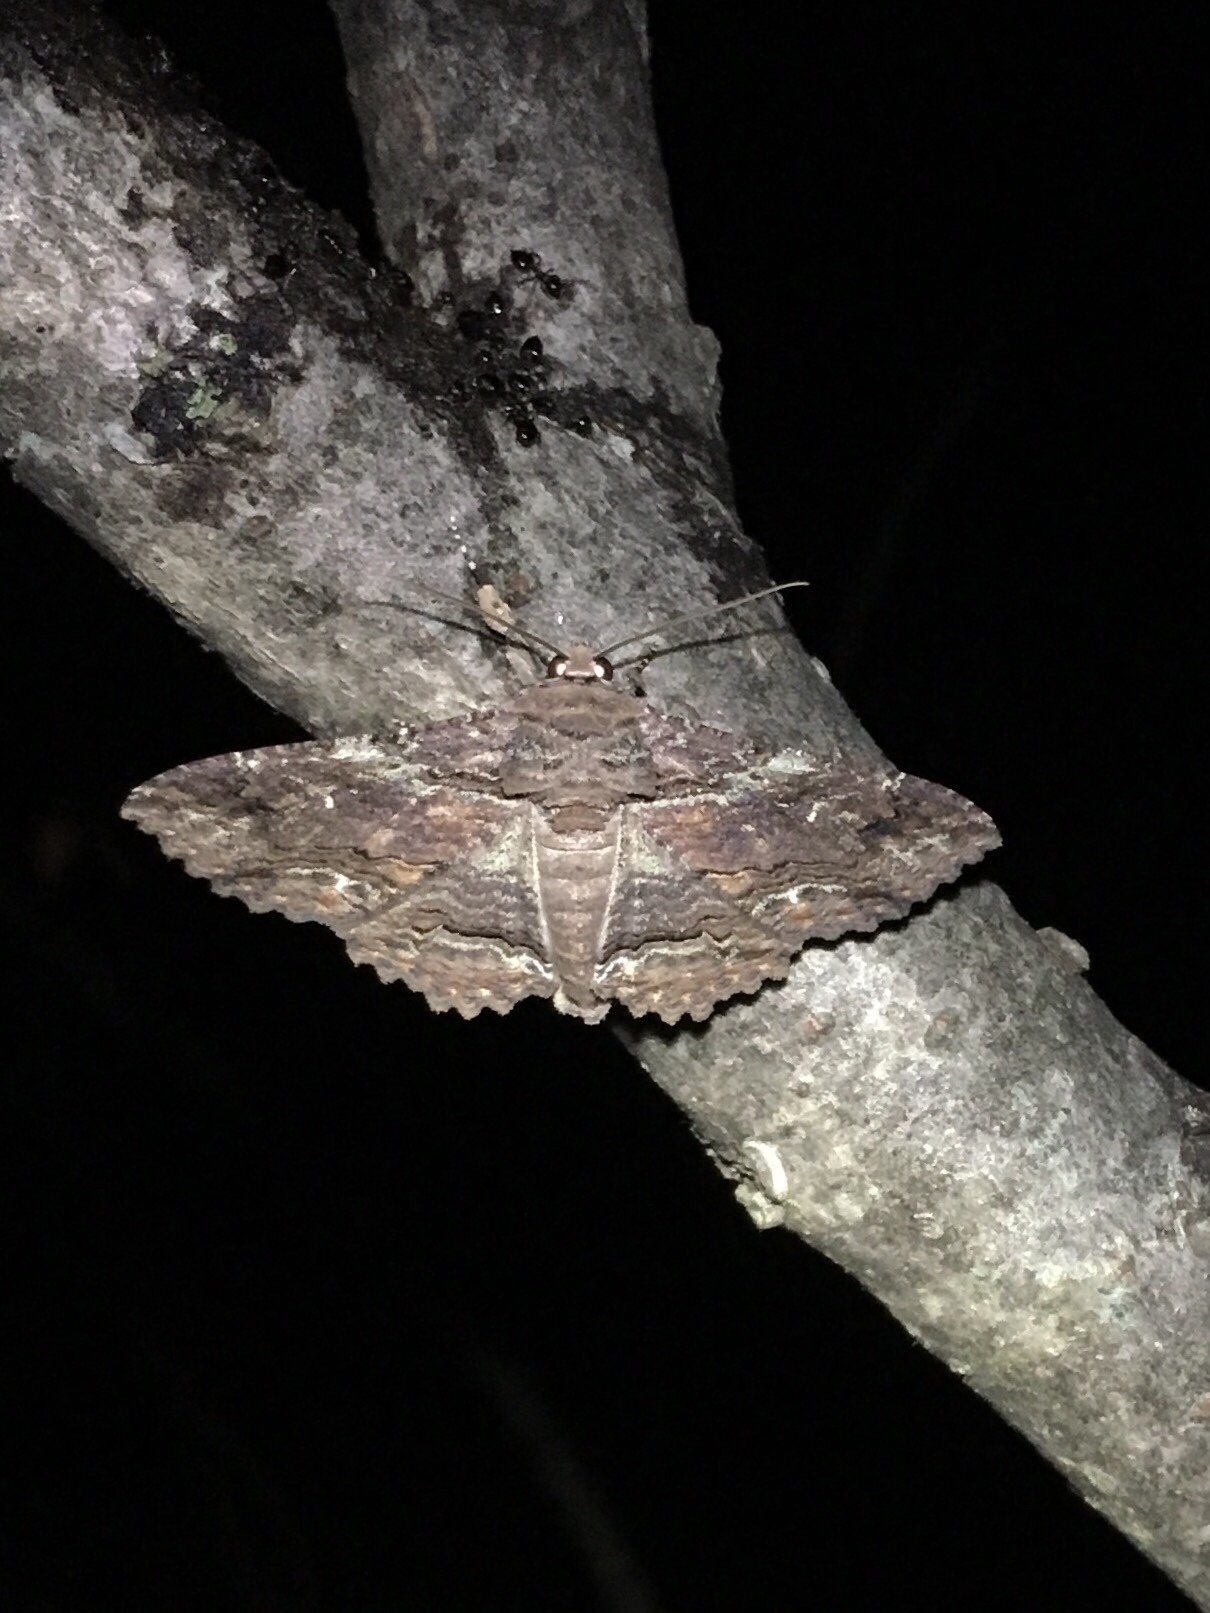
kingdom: Animalia
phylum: Arthropoda
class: Insecta
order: Lepidoptera
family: Erebidae
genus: Zale
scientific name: Zale lunata
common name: Lunate zale moth
